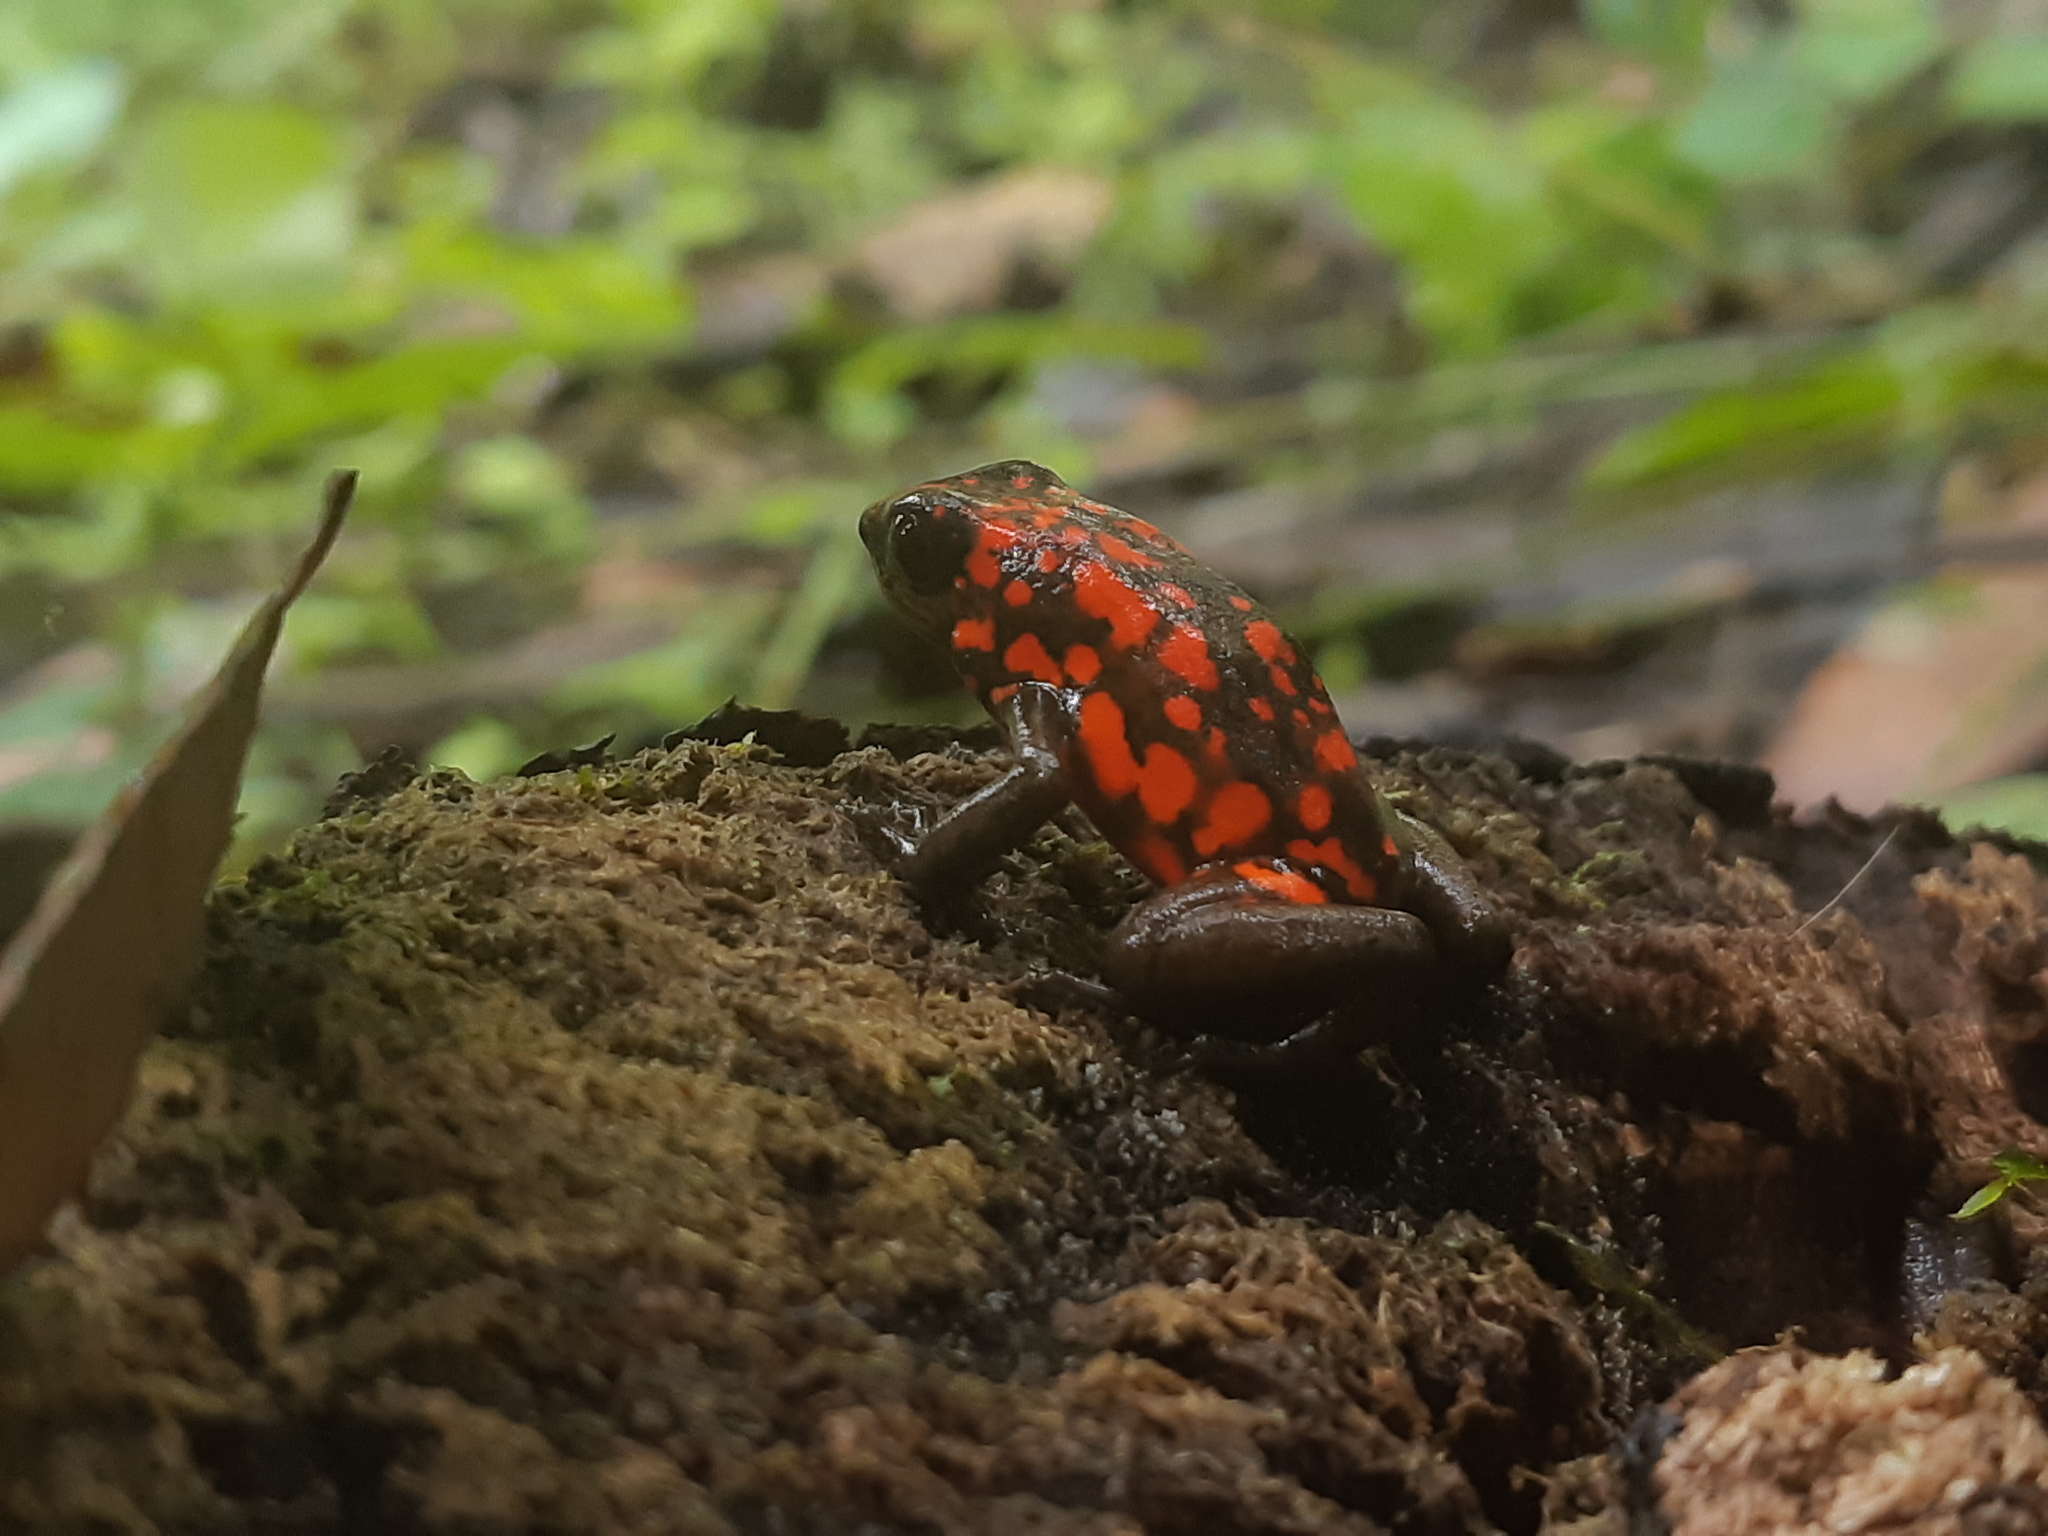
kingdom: Animalia
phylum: Chordata
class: Amphibia
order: Anura
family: Dendrobatidae
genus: Oophaga
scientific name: Oophaga sylvatica
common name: Little-devil poison frog
